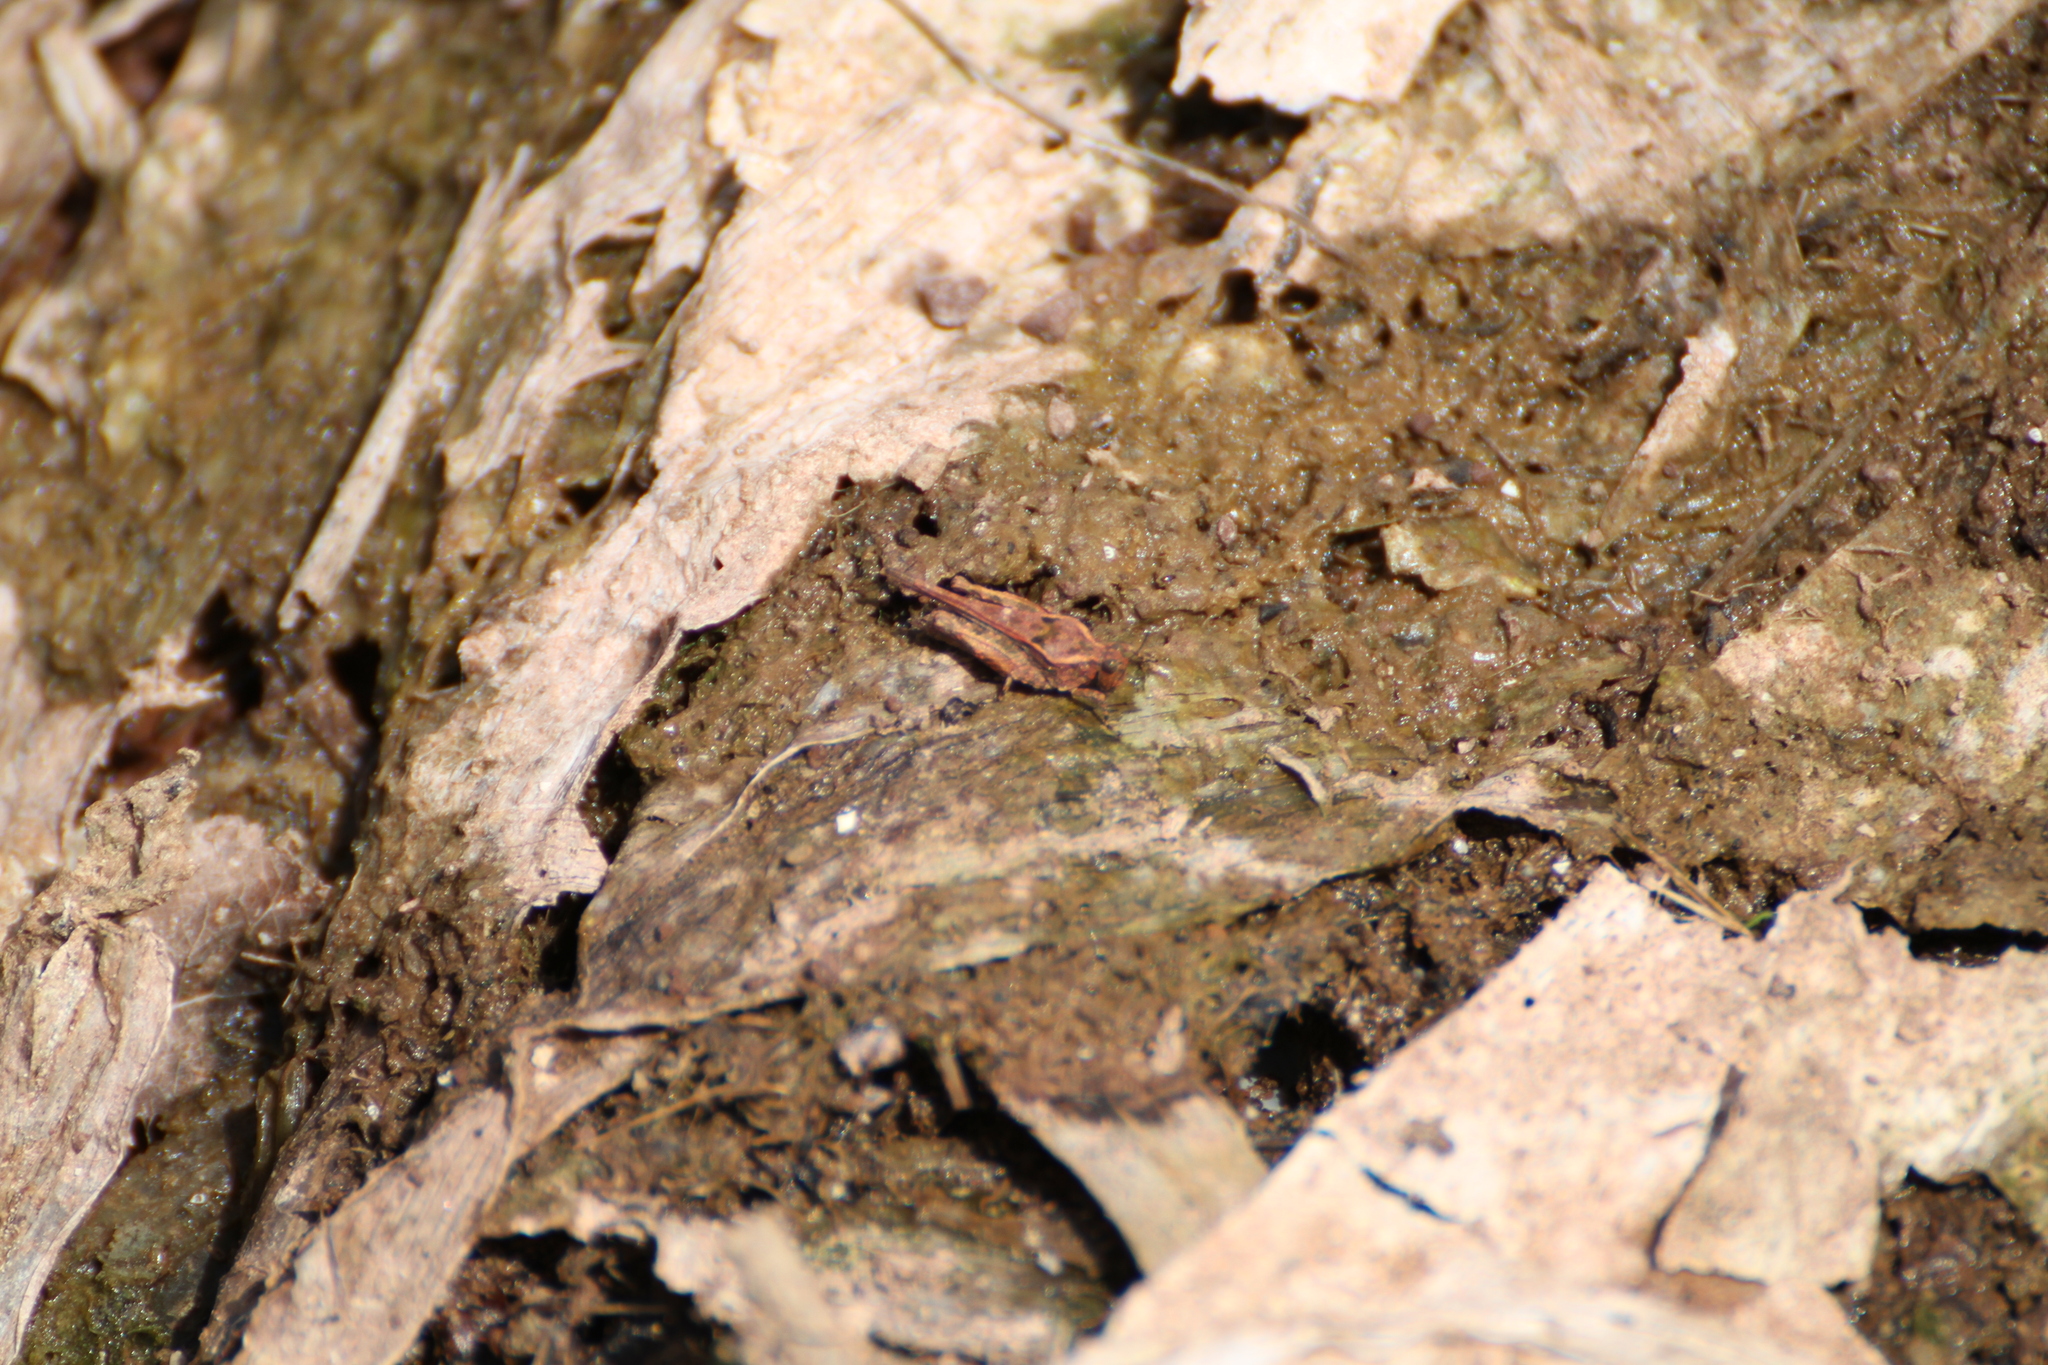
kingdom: Animalia
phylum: Arthropoda
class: Insecta
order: Orthoptera
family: Tetrigidae
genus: Paratettix
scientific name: Paratettix meridionalis
